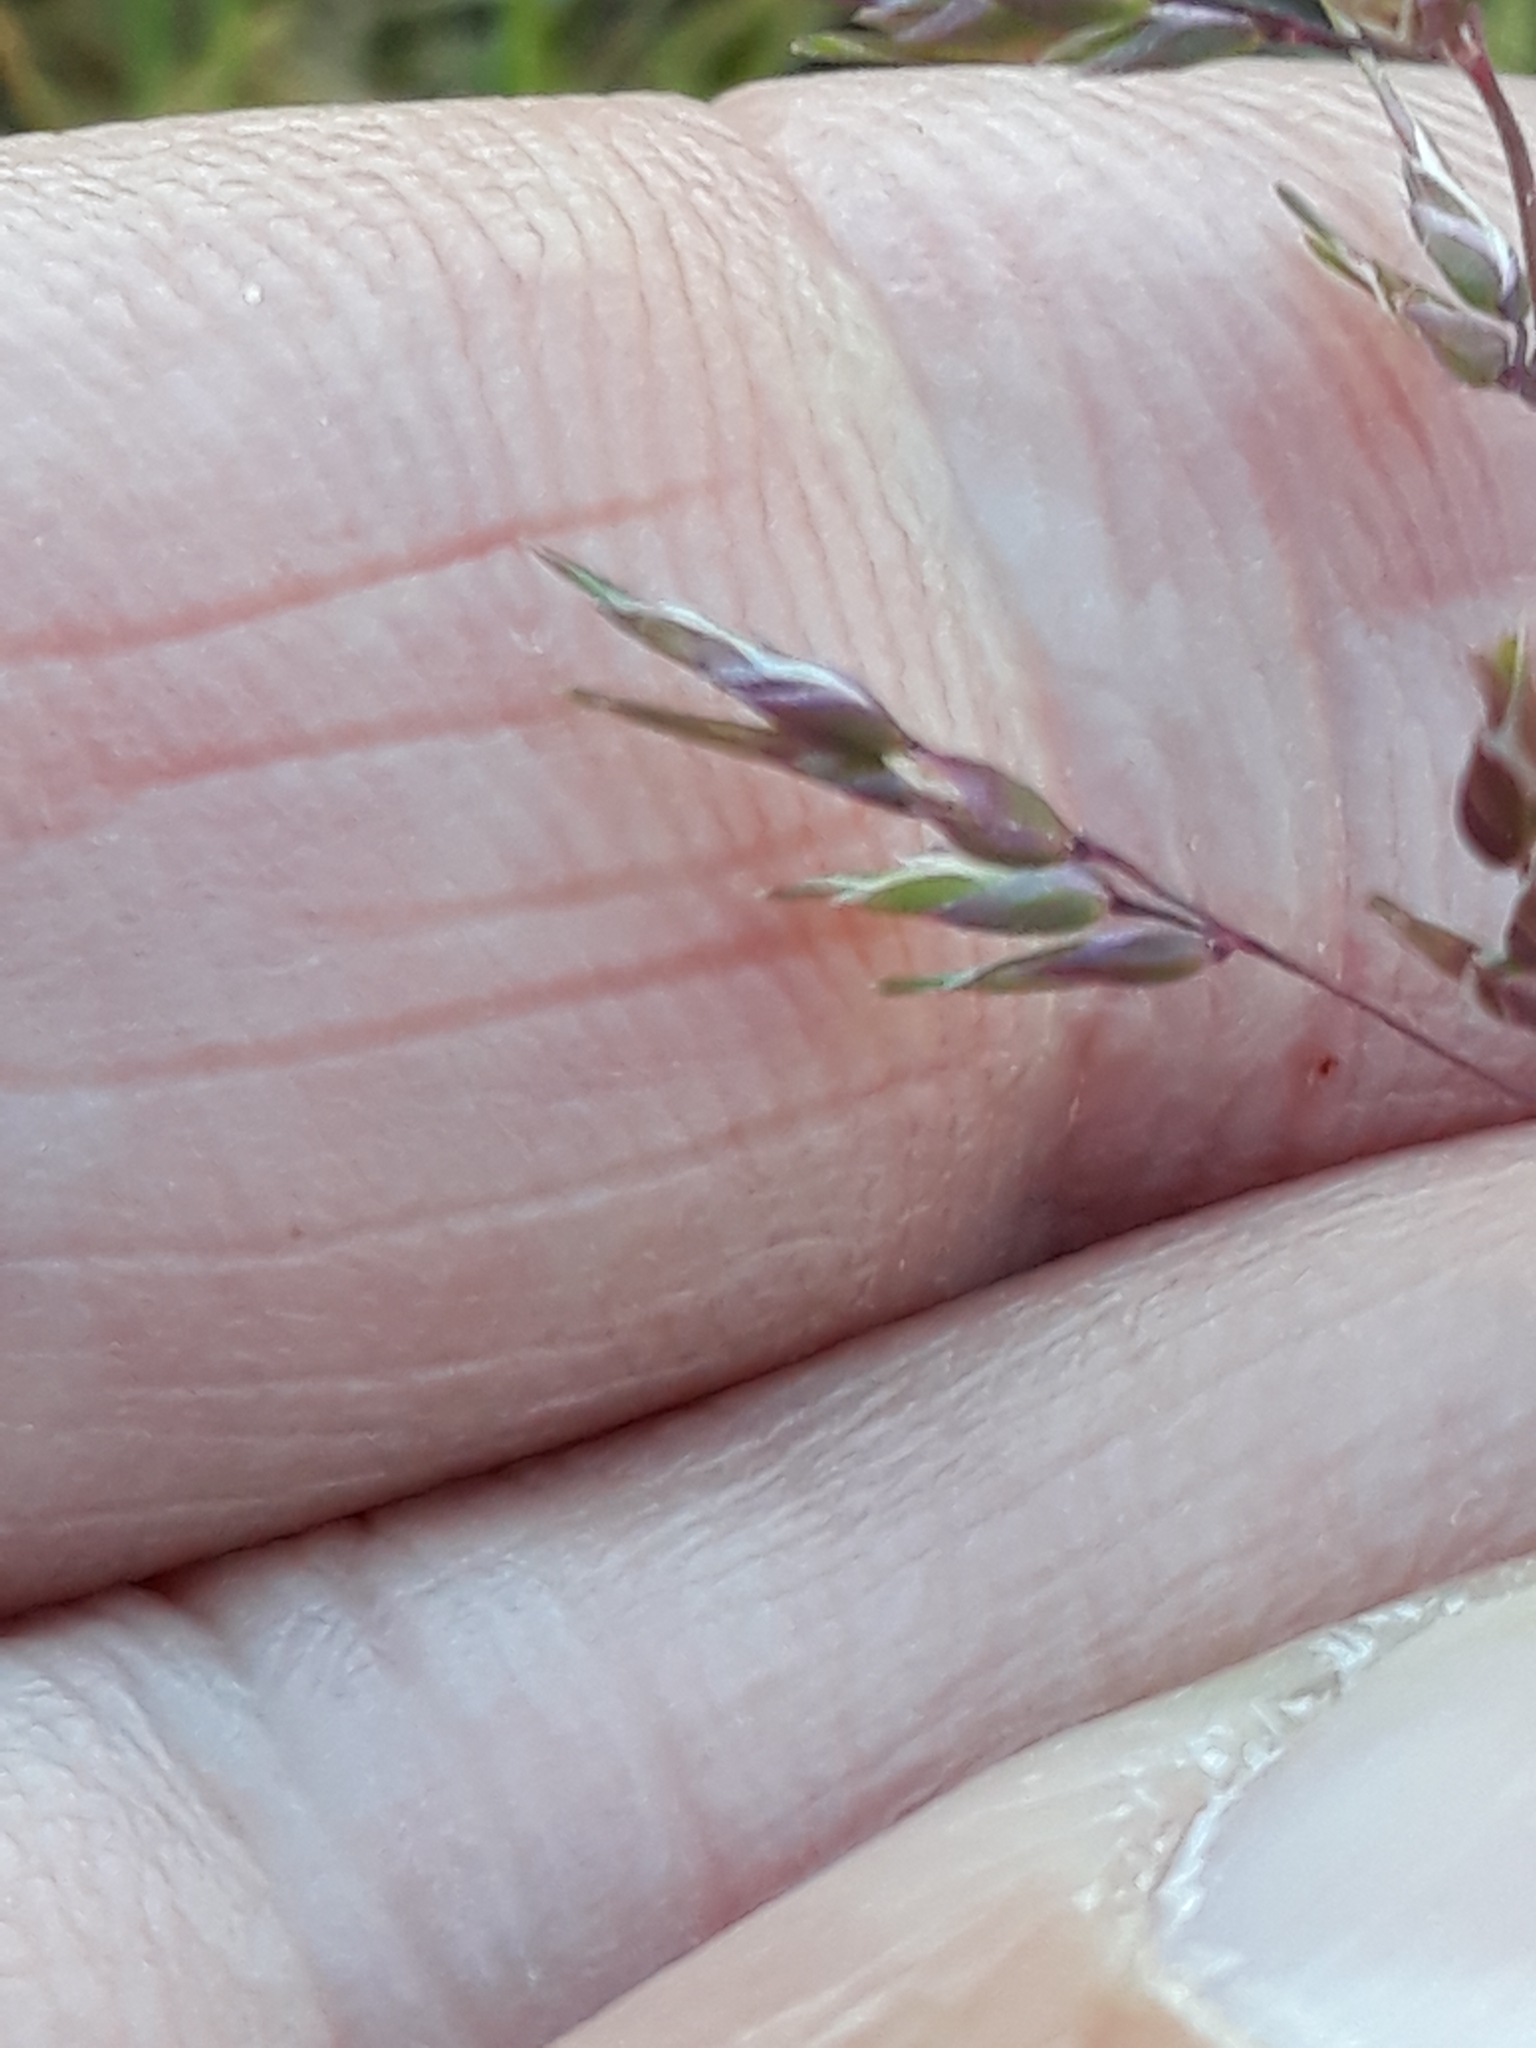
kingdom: Plantae
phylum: Tracheophyta
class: Liliopsida
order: Poales
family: Poaceae
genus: Poa
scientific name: Poa bulbosa
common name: Bulbous bluegrass
